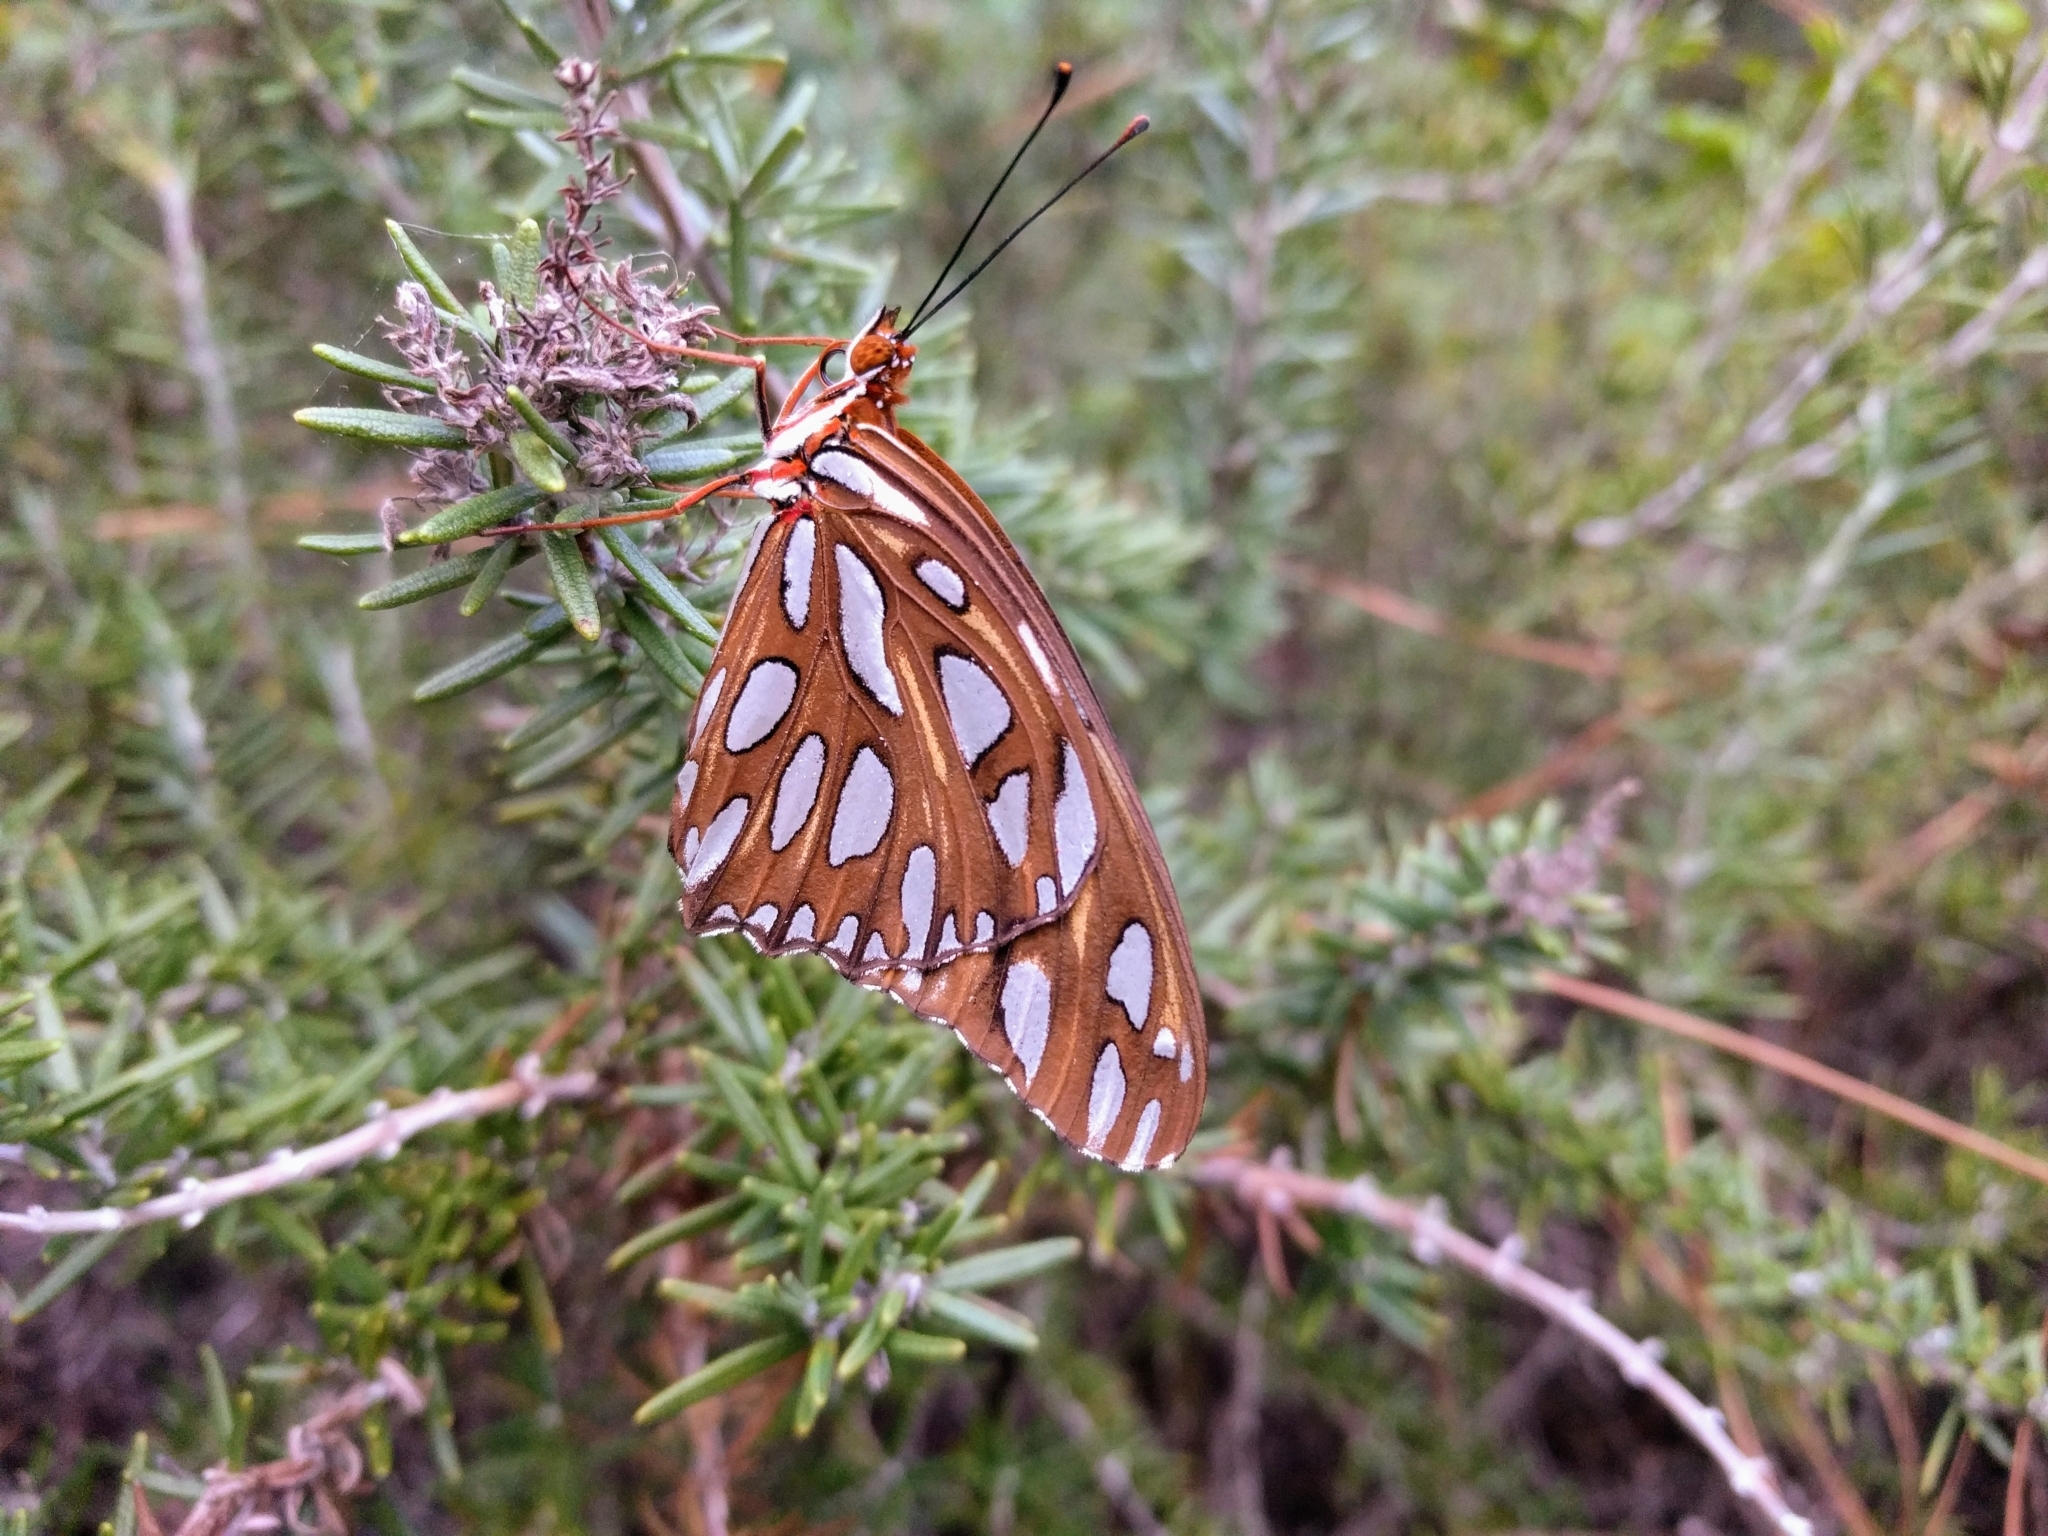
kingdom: Animalia
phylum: Arthropoda
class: Insecta
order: Lepidoptera
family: Nymphalidae
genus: Dione
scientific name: Dione vanillae
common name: Gulf fritillary
